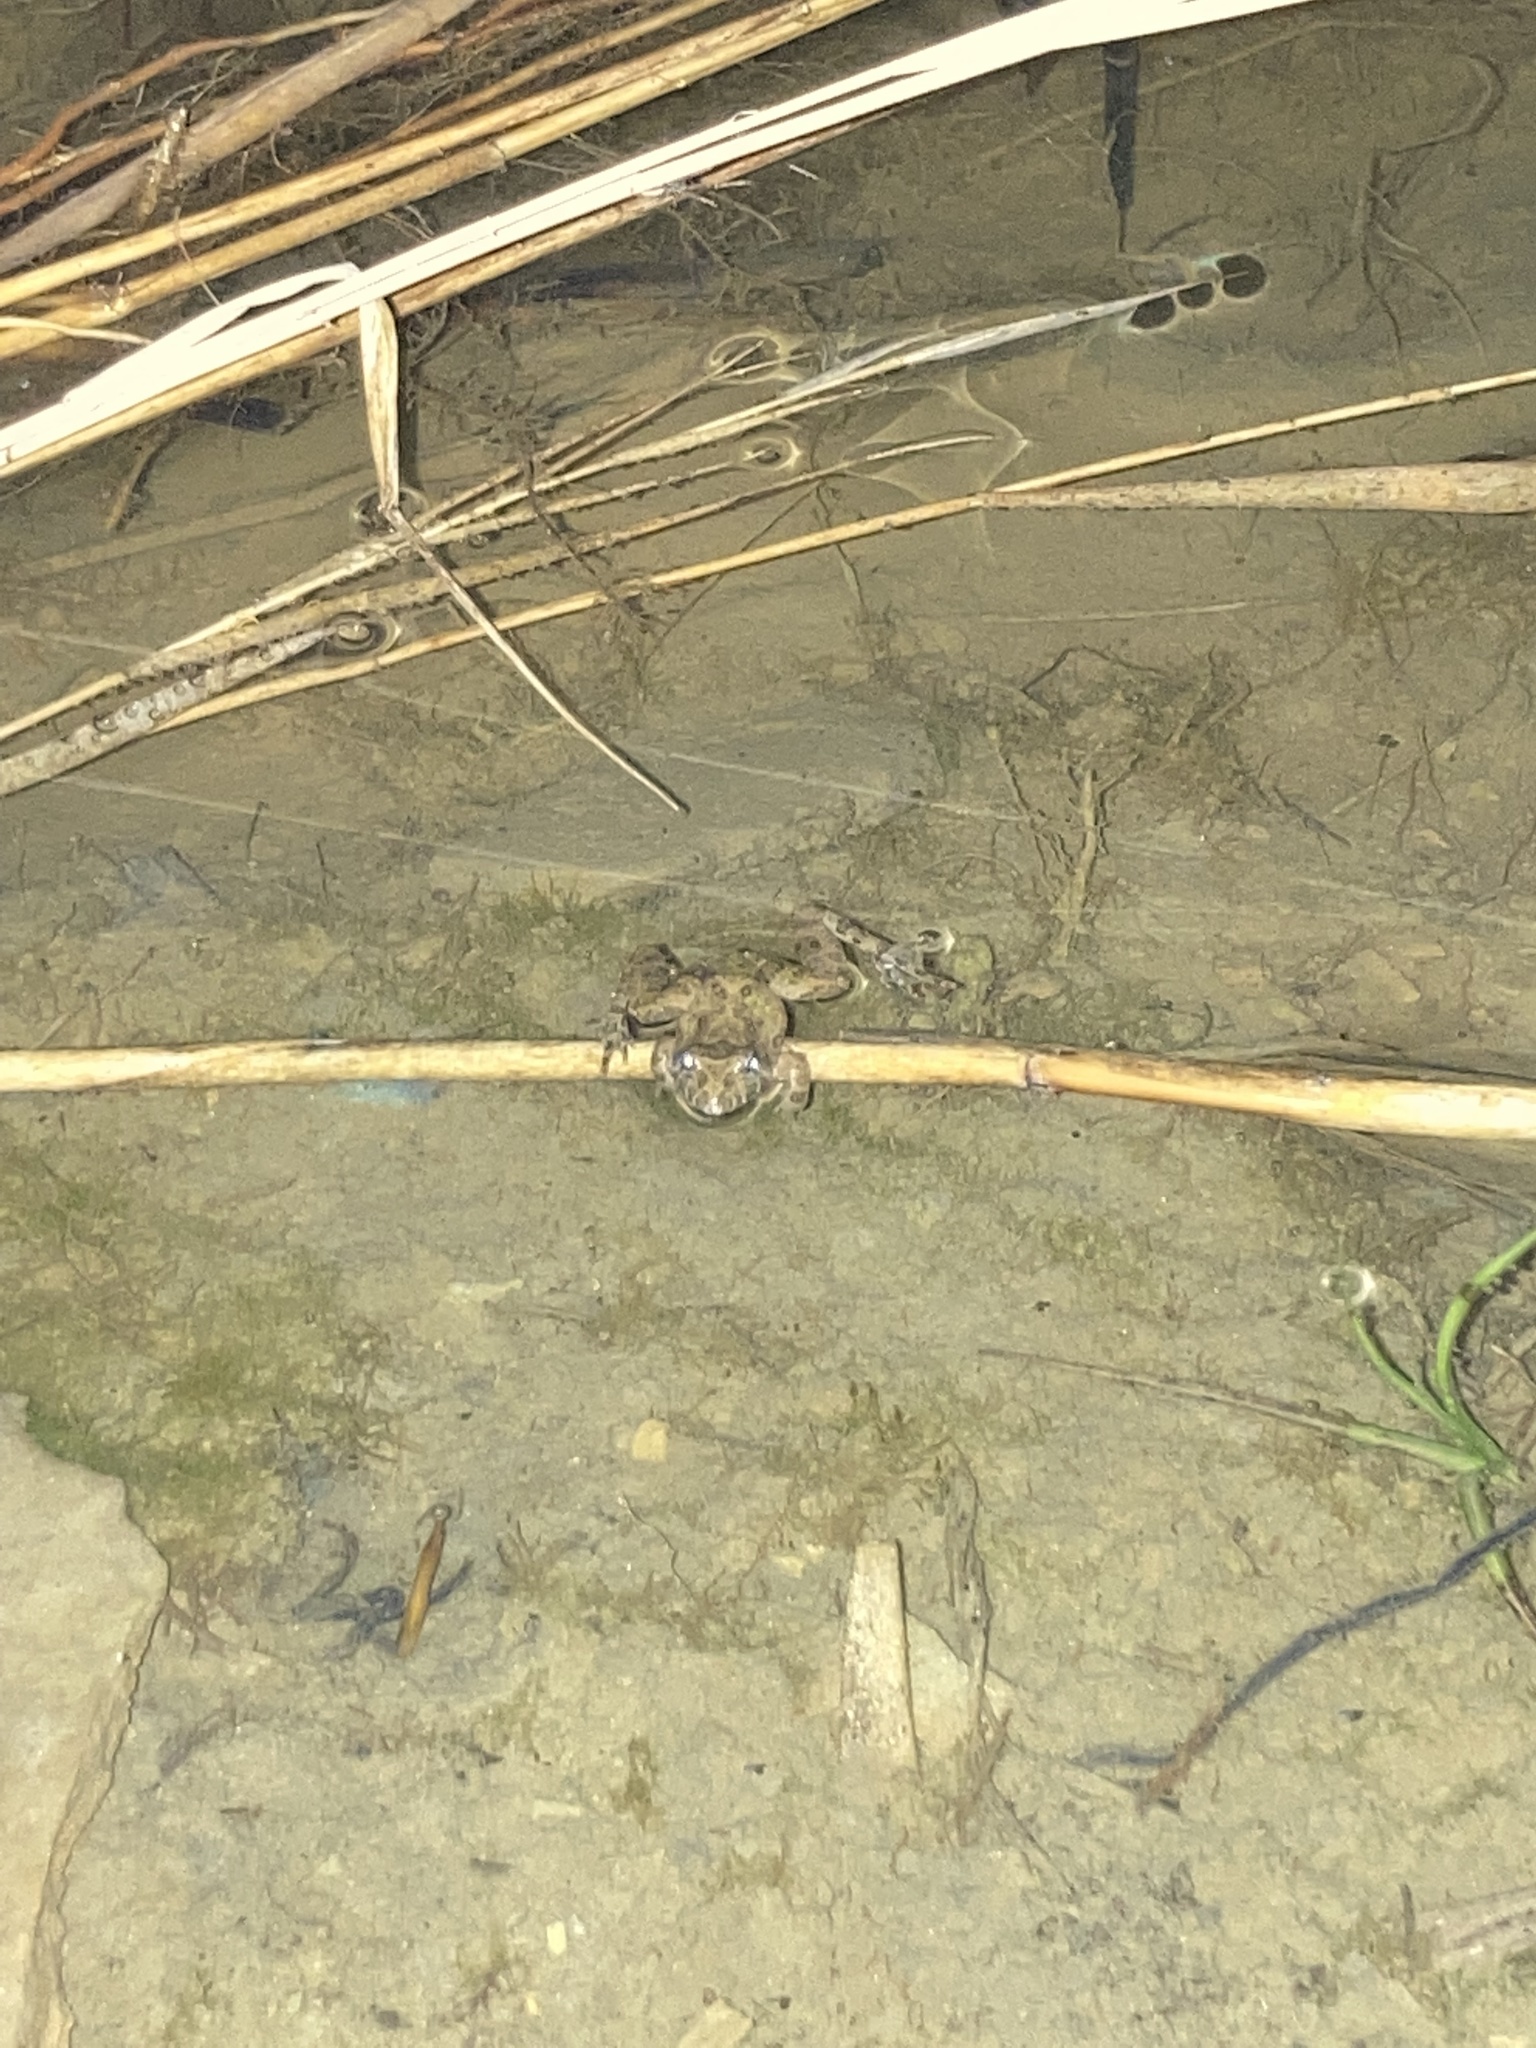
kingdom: Animalia
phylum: Chordata
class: Amphibia
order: Anura
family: Hylidae
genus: Acris
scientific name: Acris blanchardi
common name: Blanchard's cricket frog
